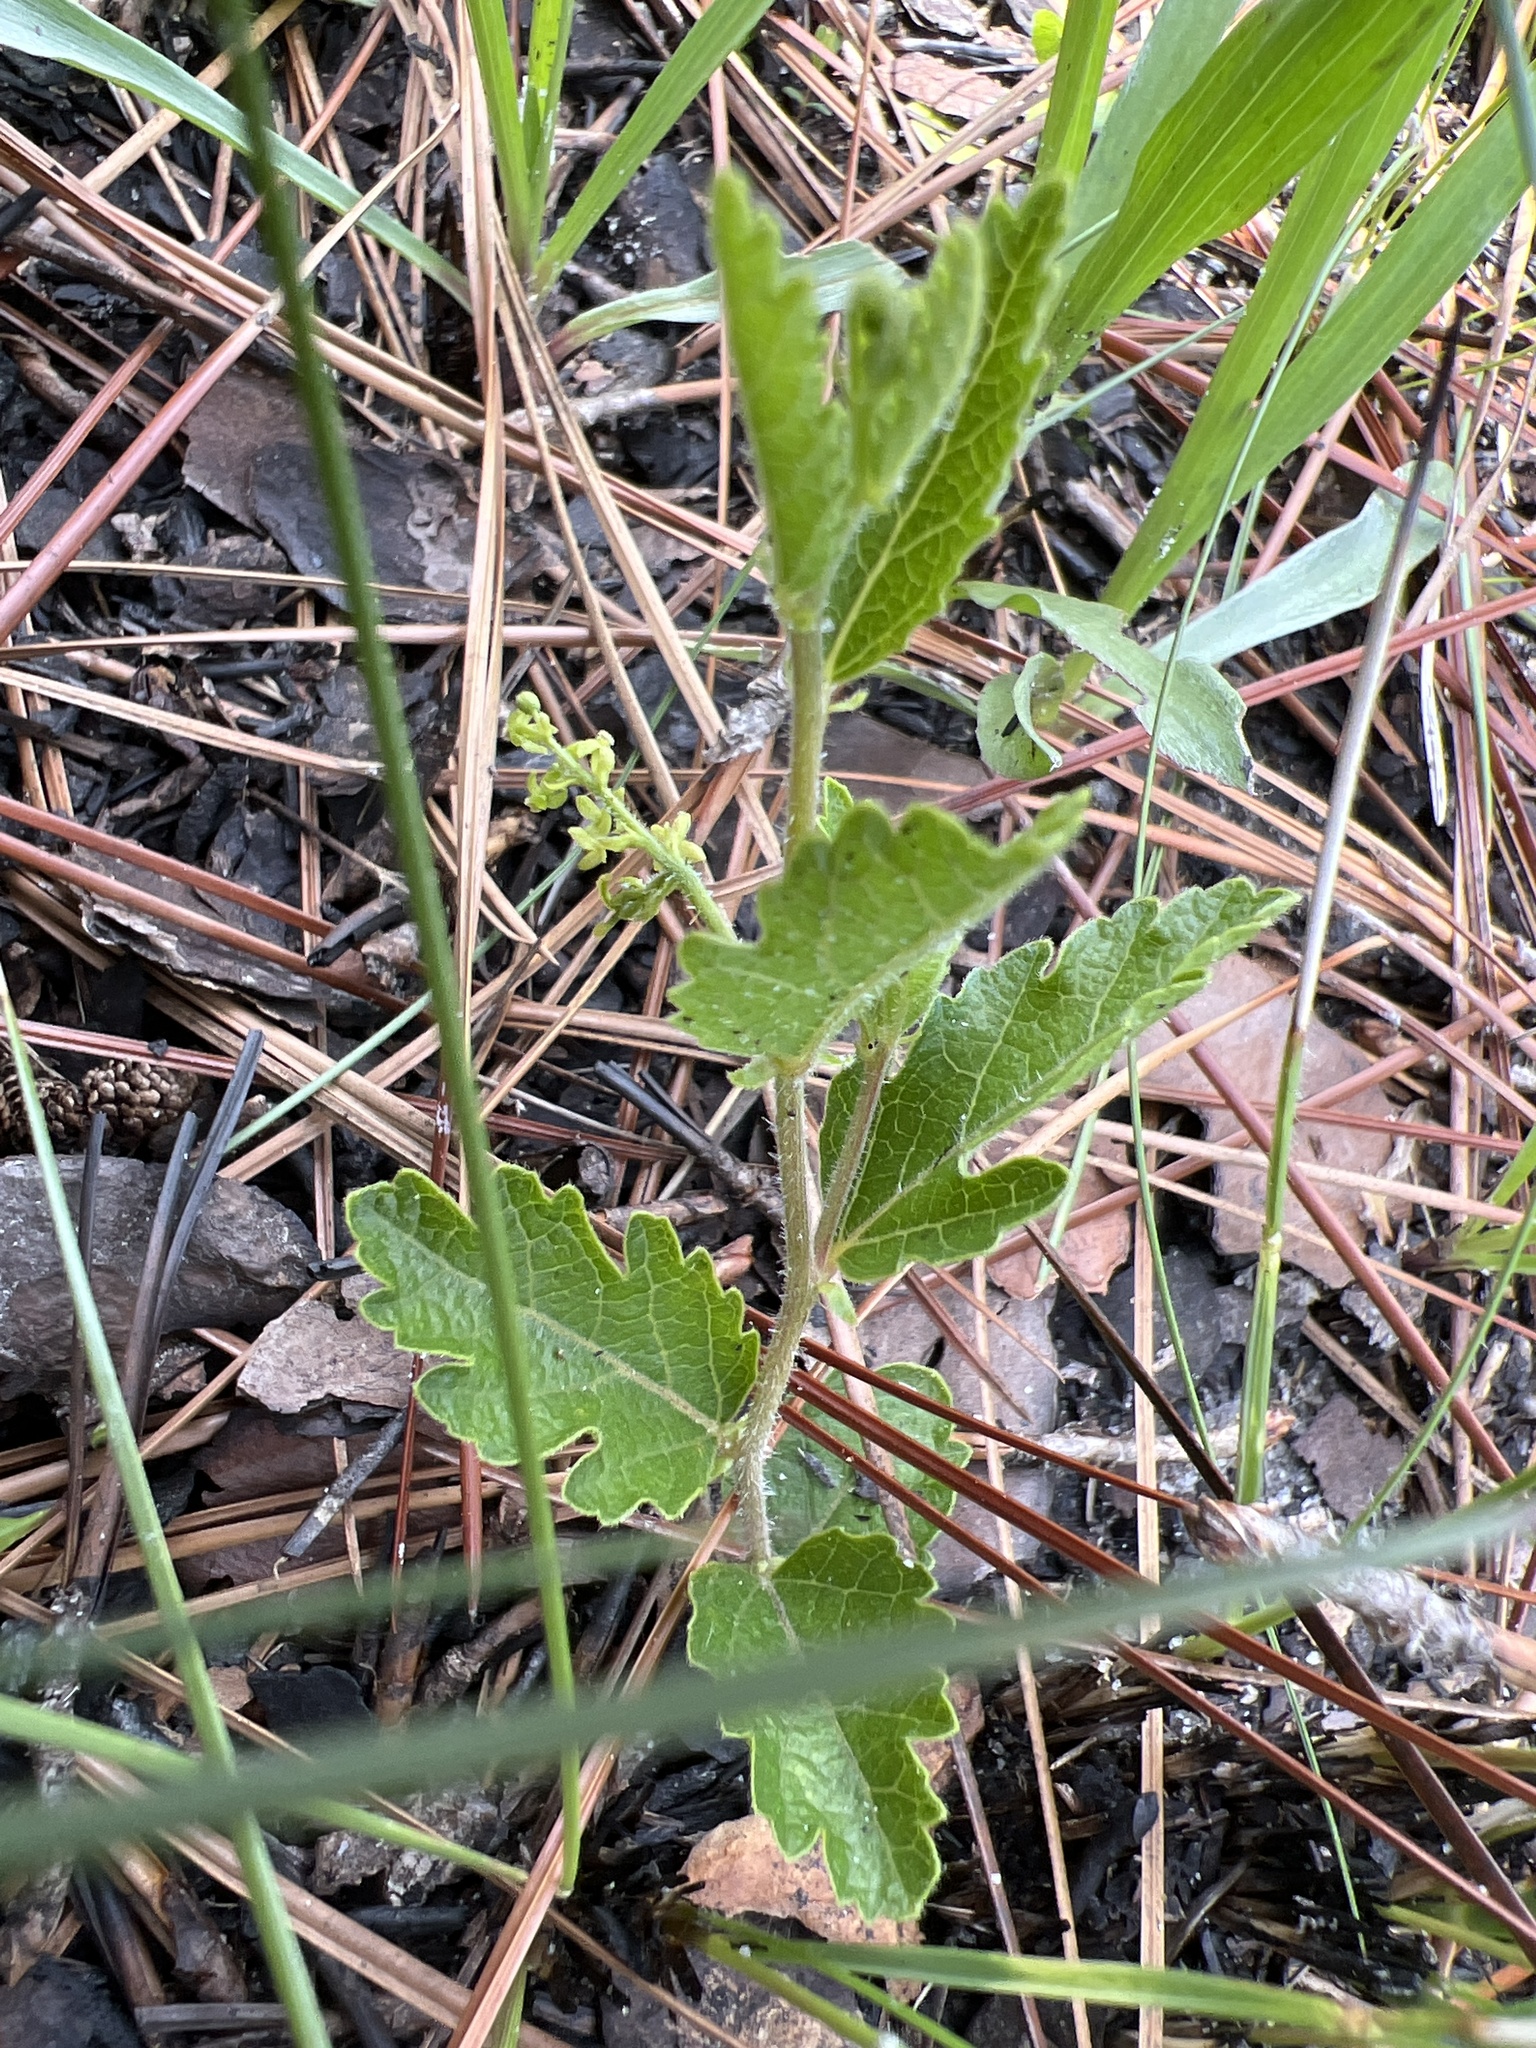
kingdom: Plantae
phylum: Tracheophyta
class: Magnoliopsida
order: Malpighiales
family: Euphorbiaceae
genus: Tragia
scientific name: Tragia smallii
